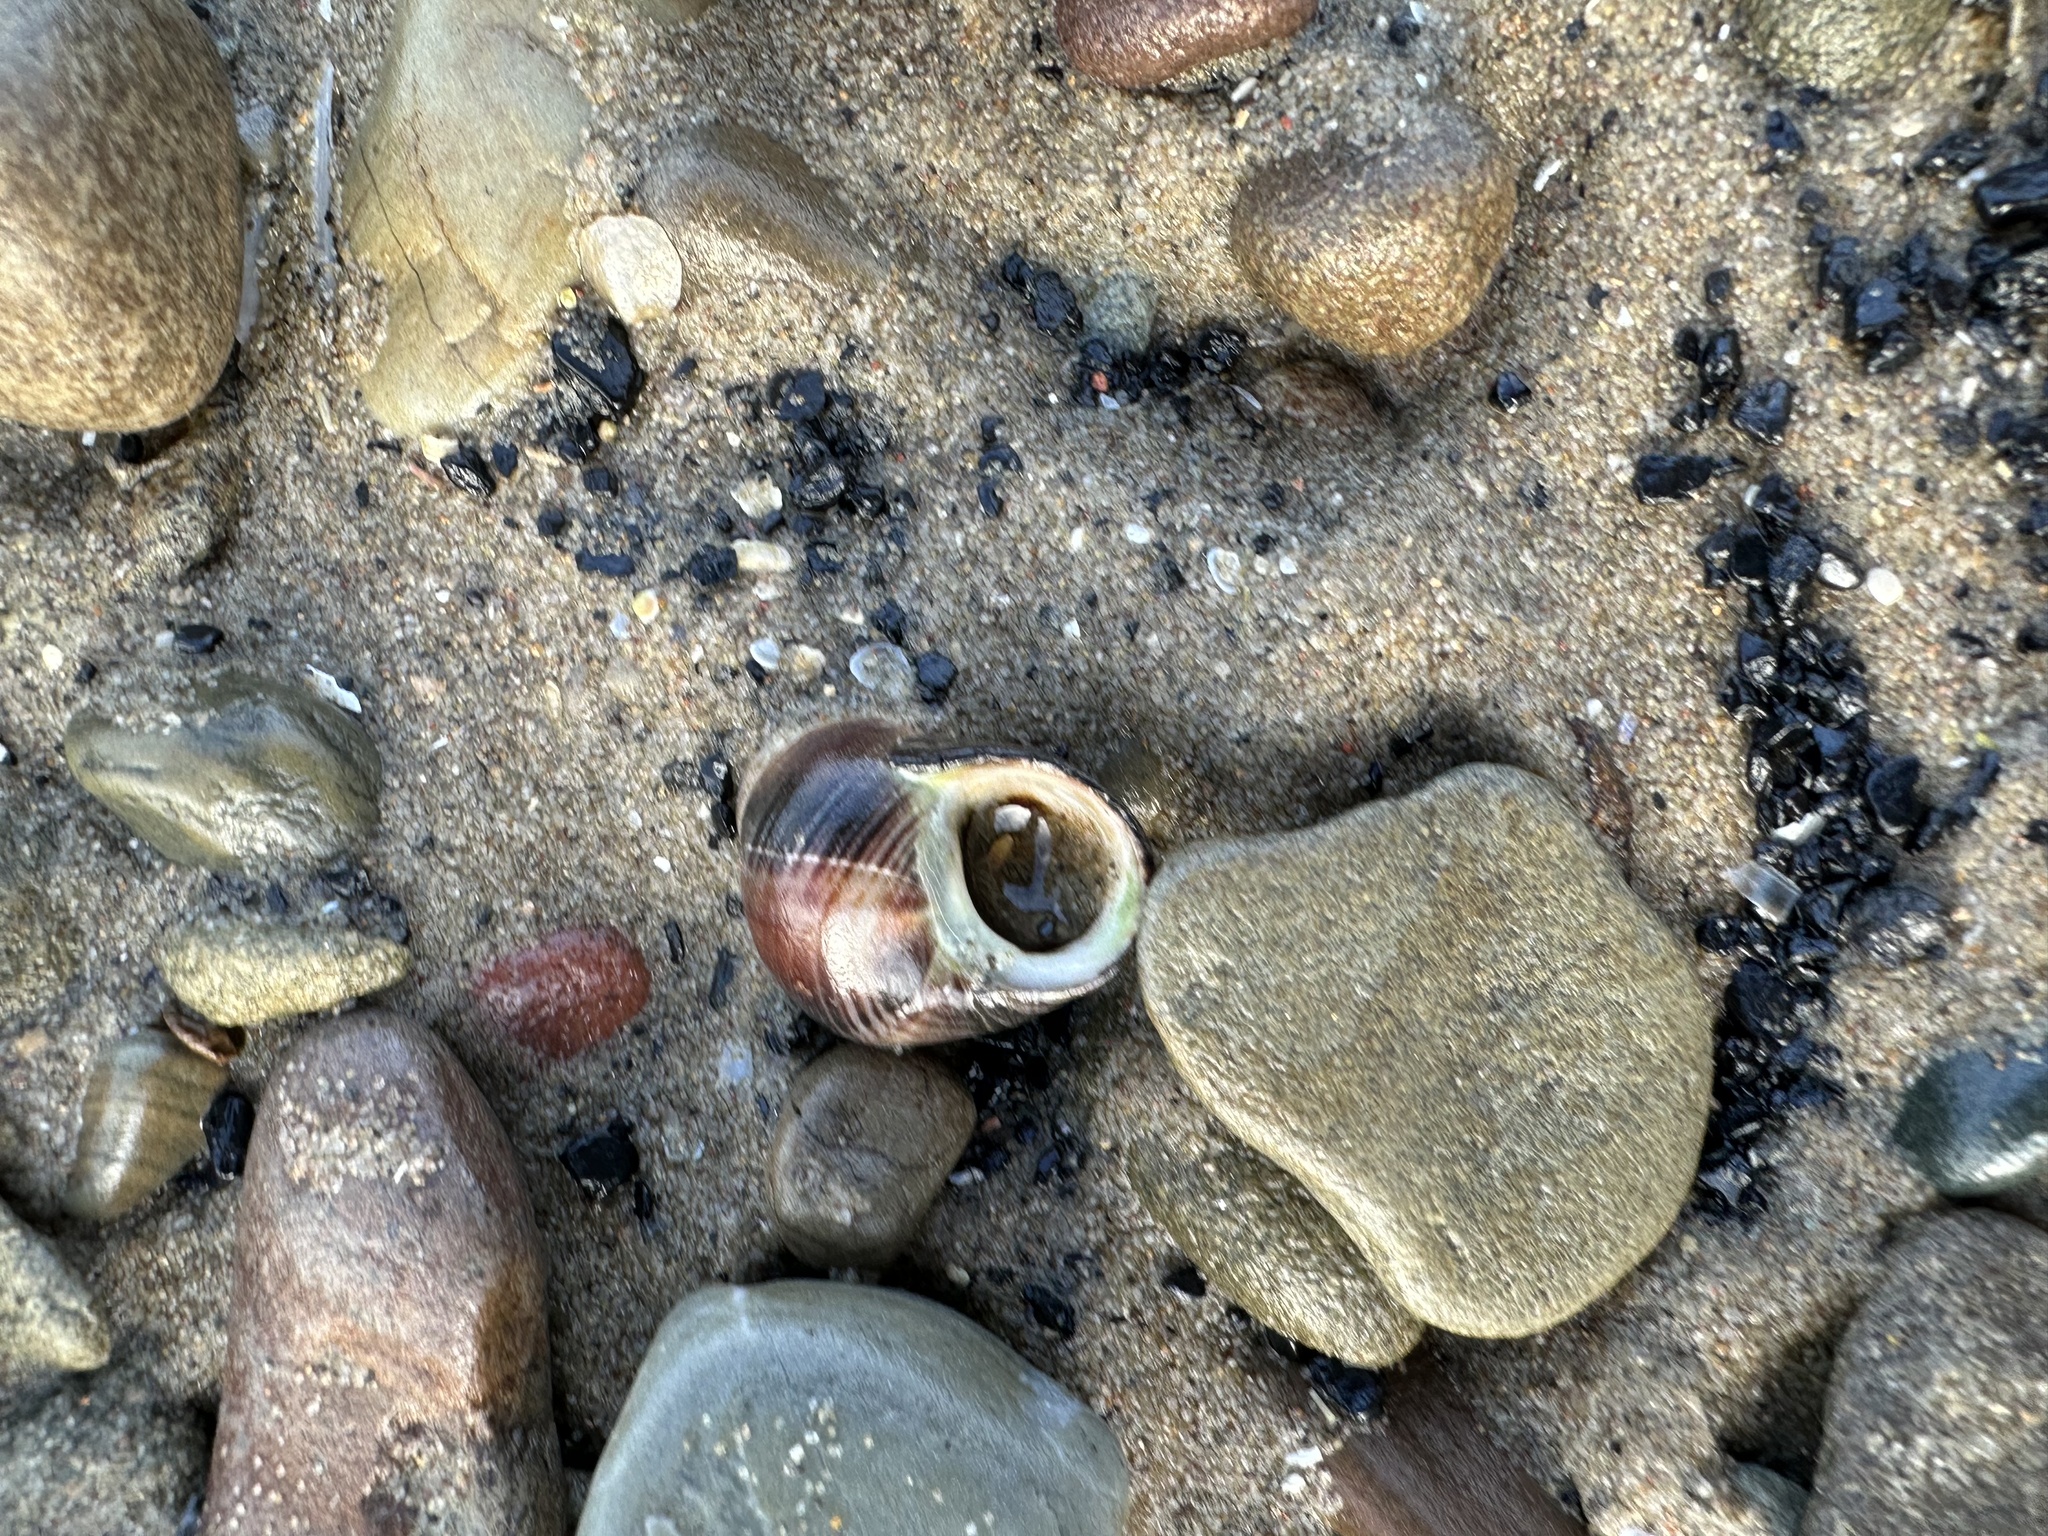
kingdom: Animalia
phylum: Mollusca
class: Gastropoda
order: Littorinimorpha
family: Littorinidae
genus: Littorina
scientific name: Littorina littorea
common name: Common periwinkle
